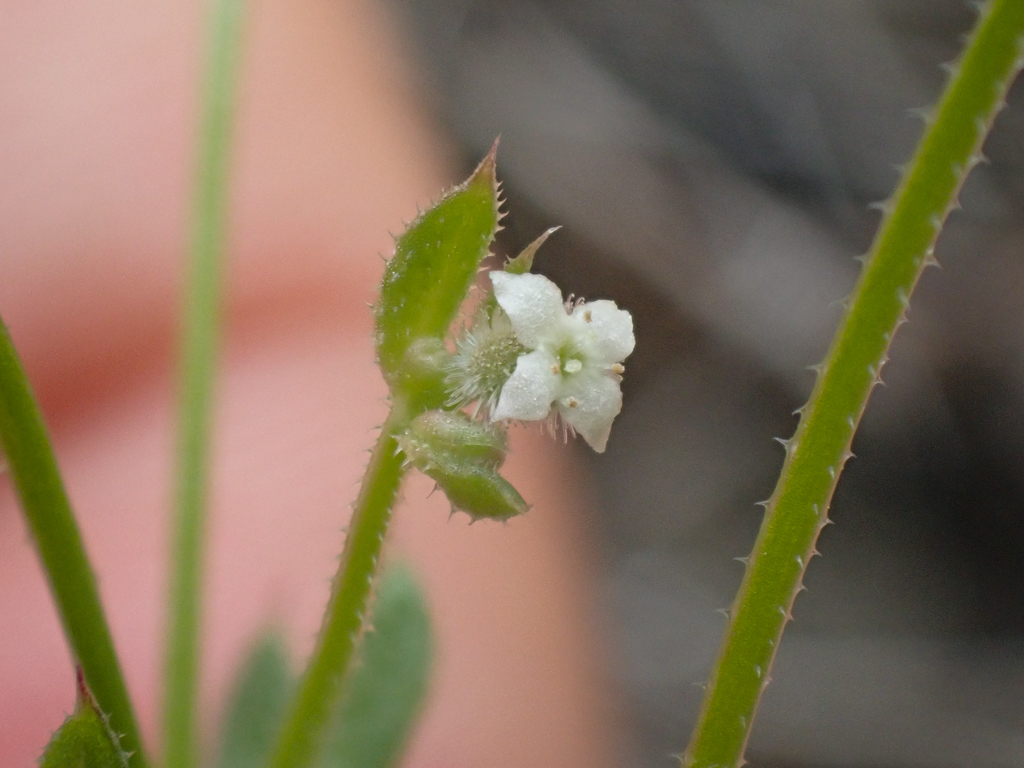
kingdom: Plantae
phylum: Tracheophyta
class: Magnoliopsida
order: Gentianales
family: Rubiaceae
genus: Galium
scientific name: Galium aparine
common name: Cleavers
